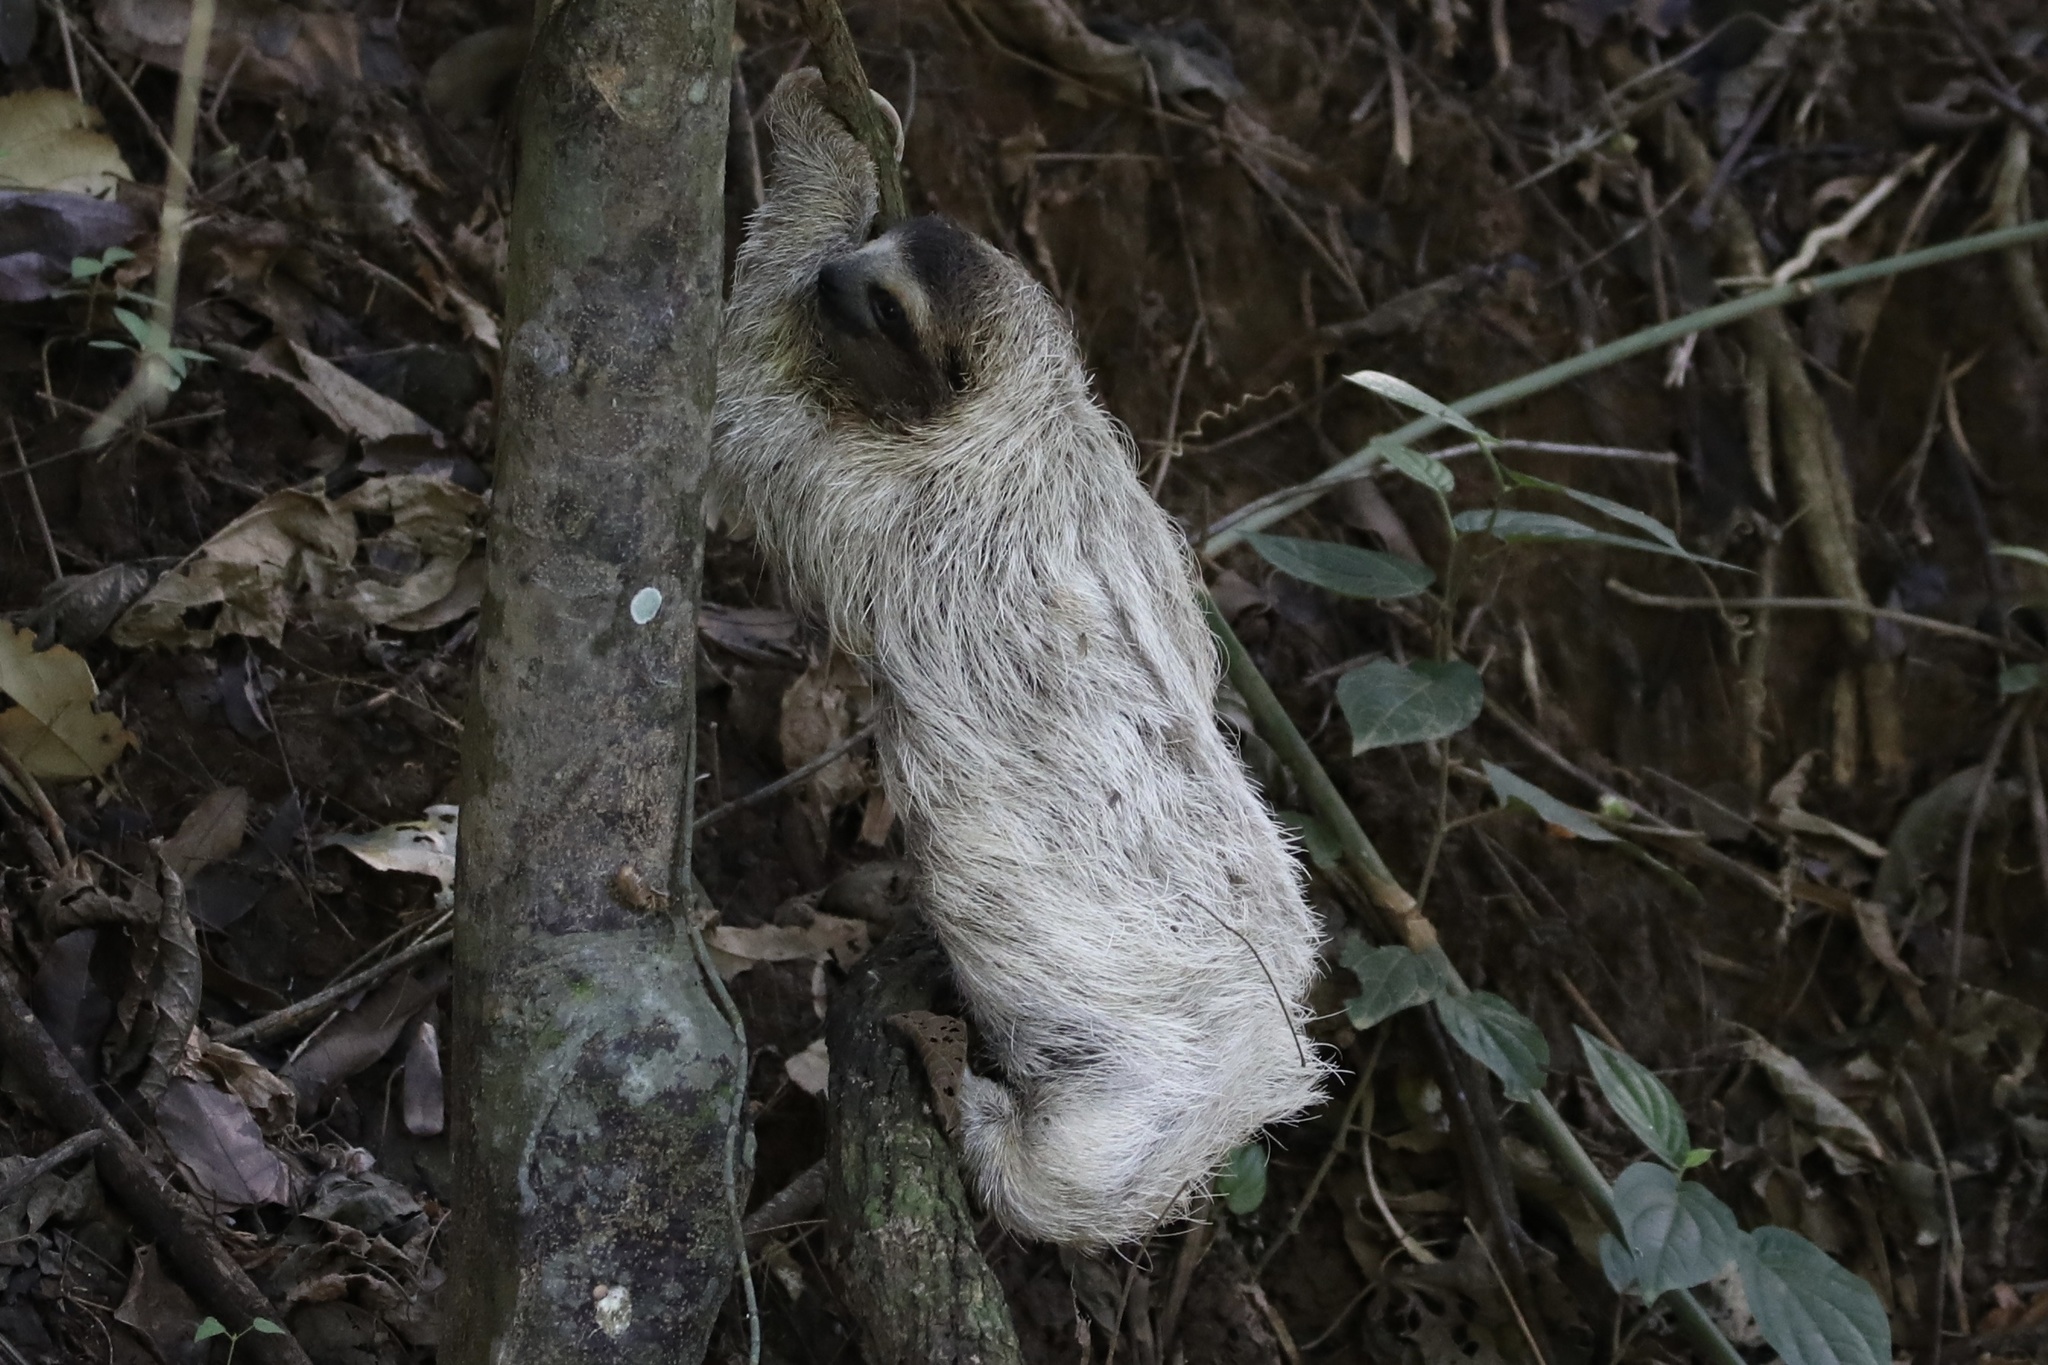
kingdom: Animalia
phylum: Chordata
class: Mammalia
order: Pilosa
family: Bradypodidae
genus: Bradypus
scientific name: Bradypus variegatus
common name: Brown-throated three-toed sloth
